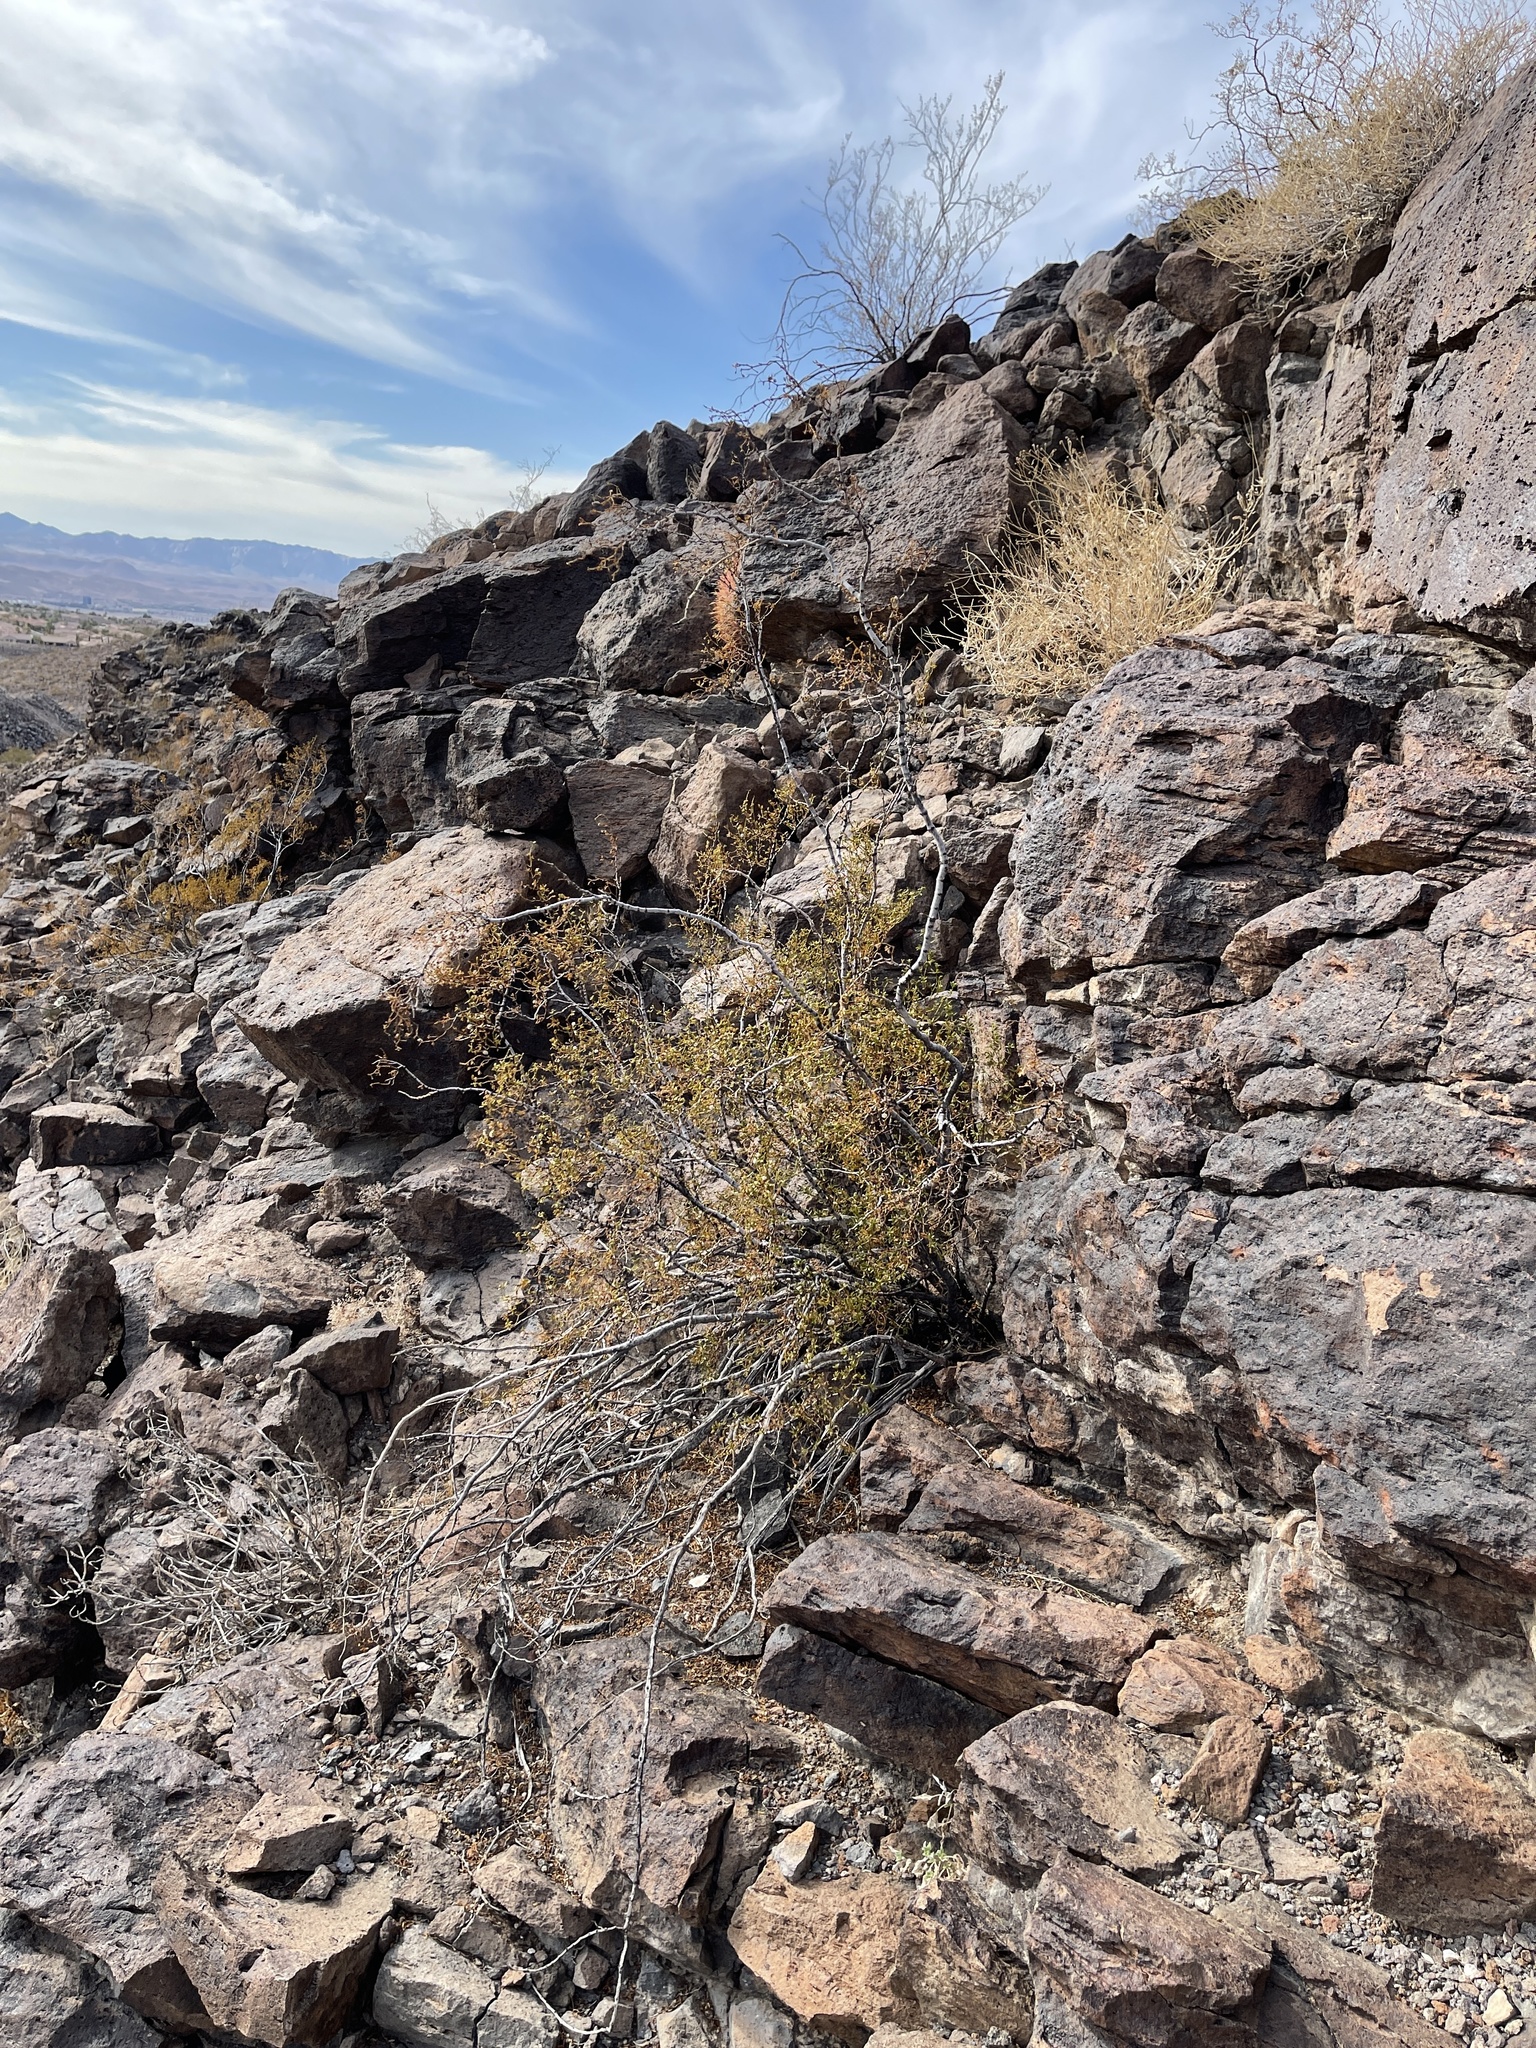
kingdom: Plantae
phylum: Tracheophyta
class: Magnoliopsida
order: Zygophyllales
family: Zygophyllaceae
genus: Larrea
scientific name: Larrea tridentata
